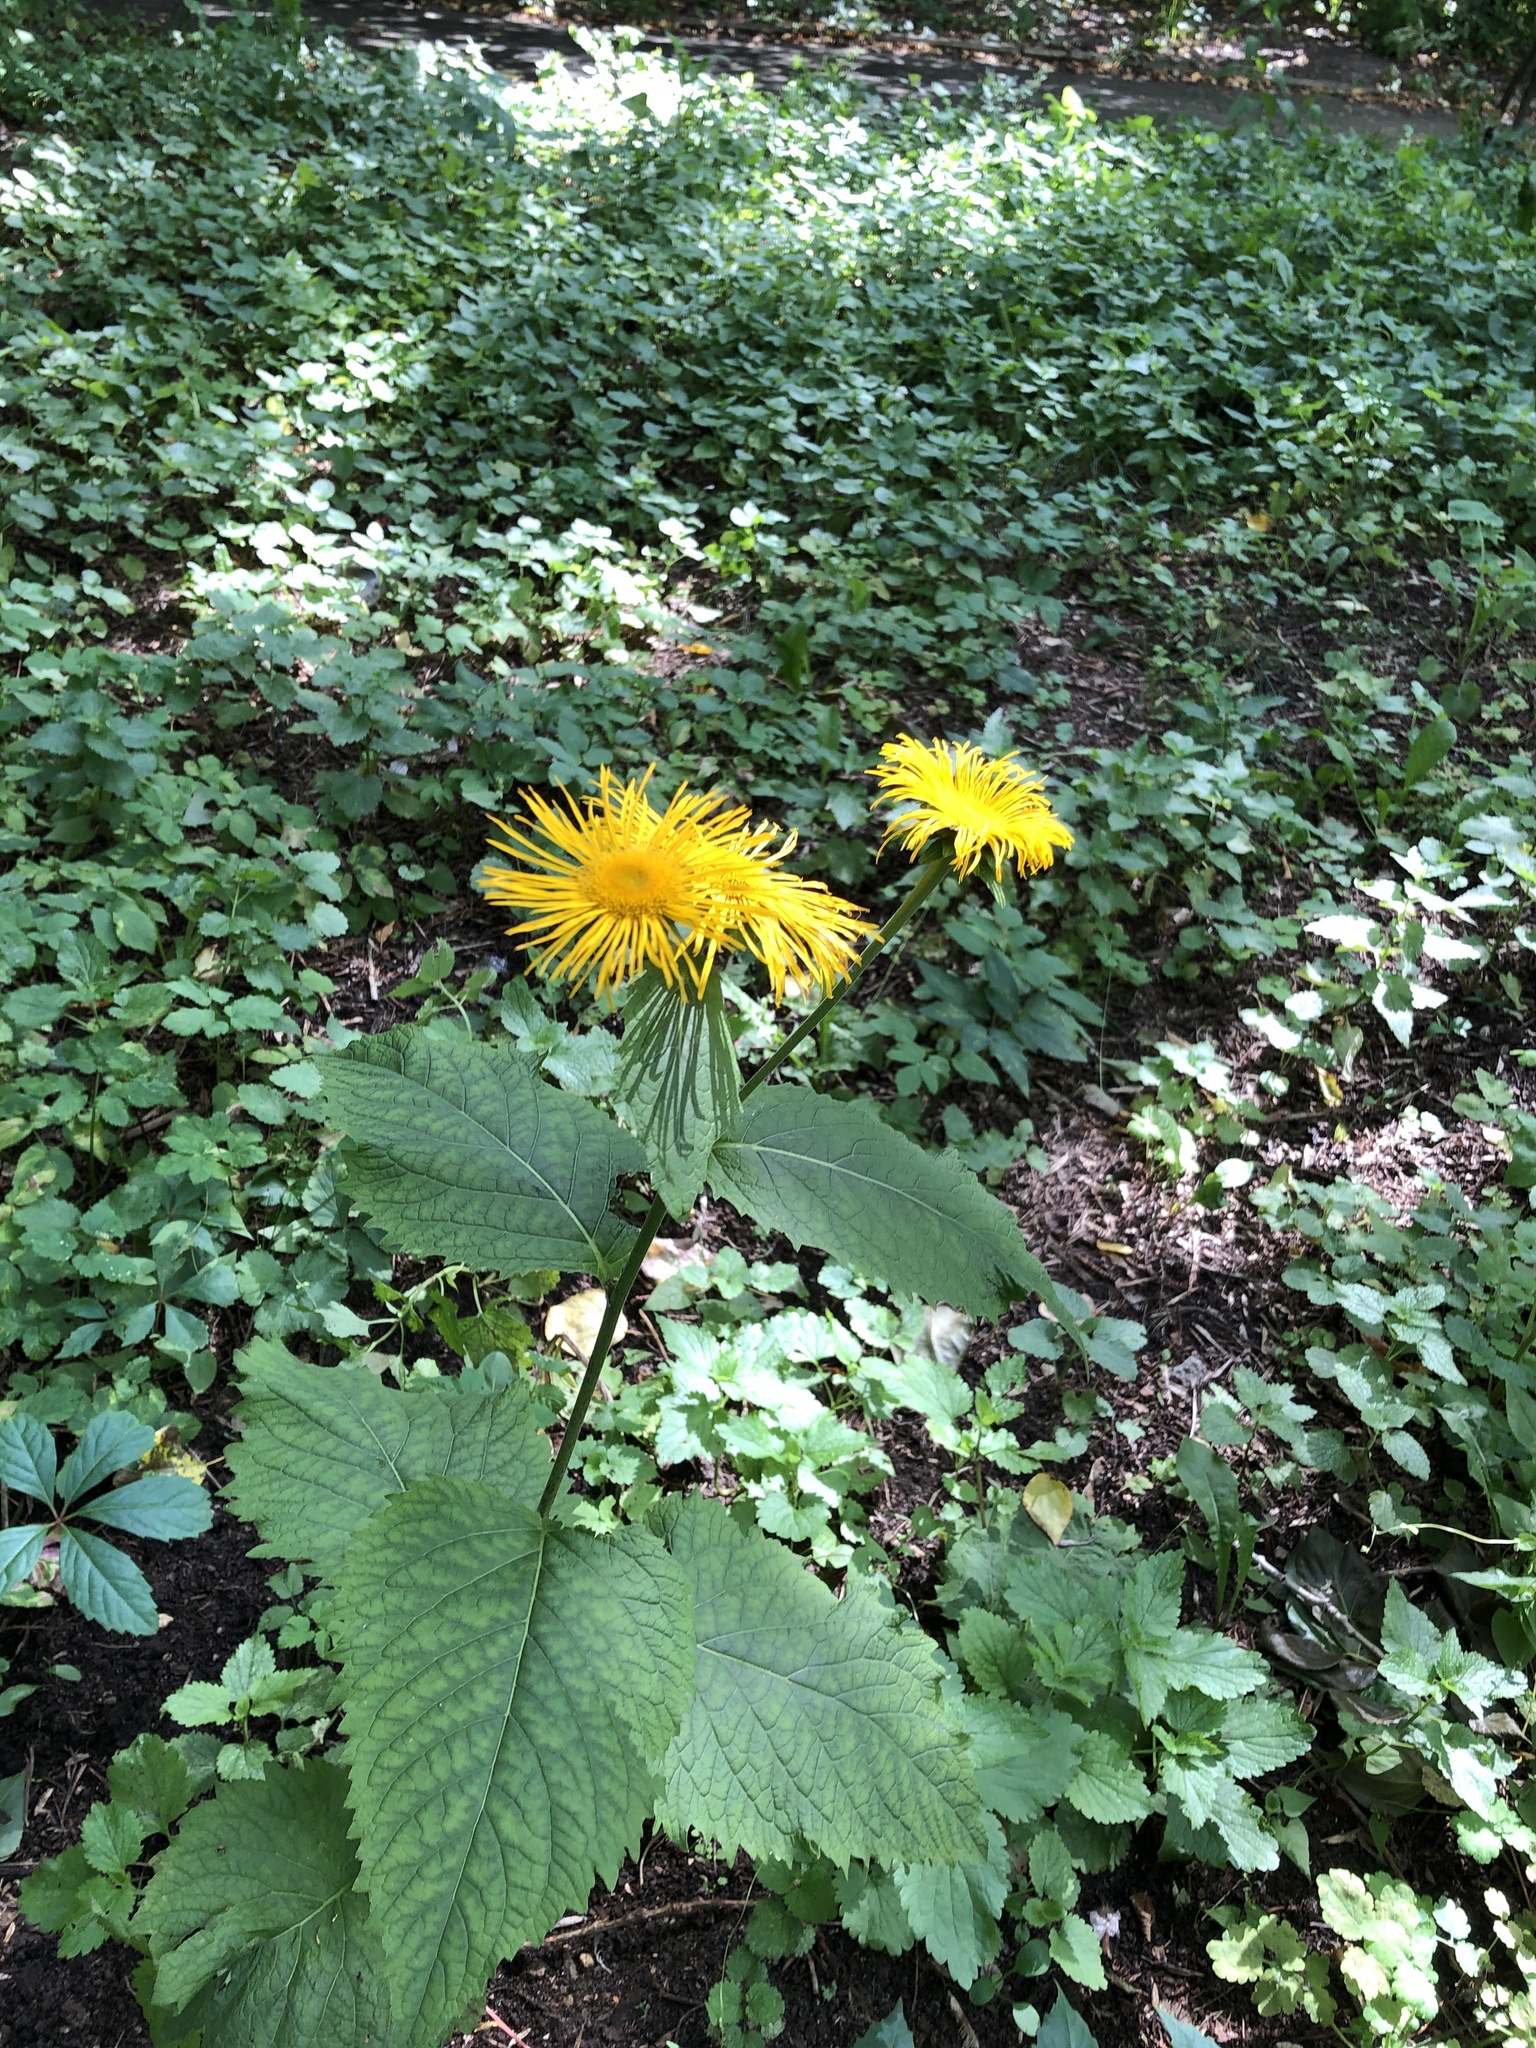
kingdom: Plantae
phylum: Tracheophyta
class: Magnoliopsida
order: Asterales
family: Asteraceae
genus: Telekia
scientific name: Telekia speciosa
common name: Yellow oxeye
